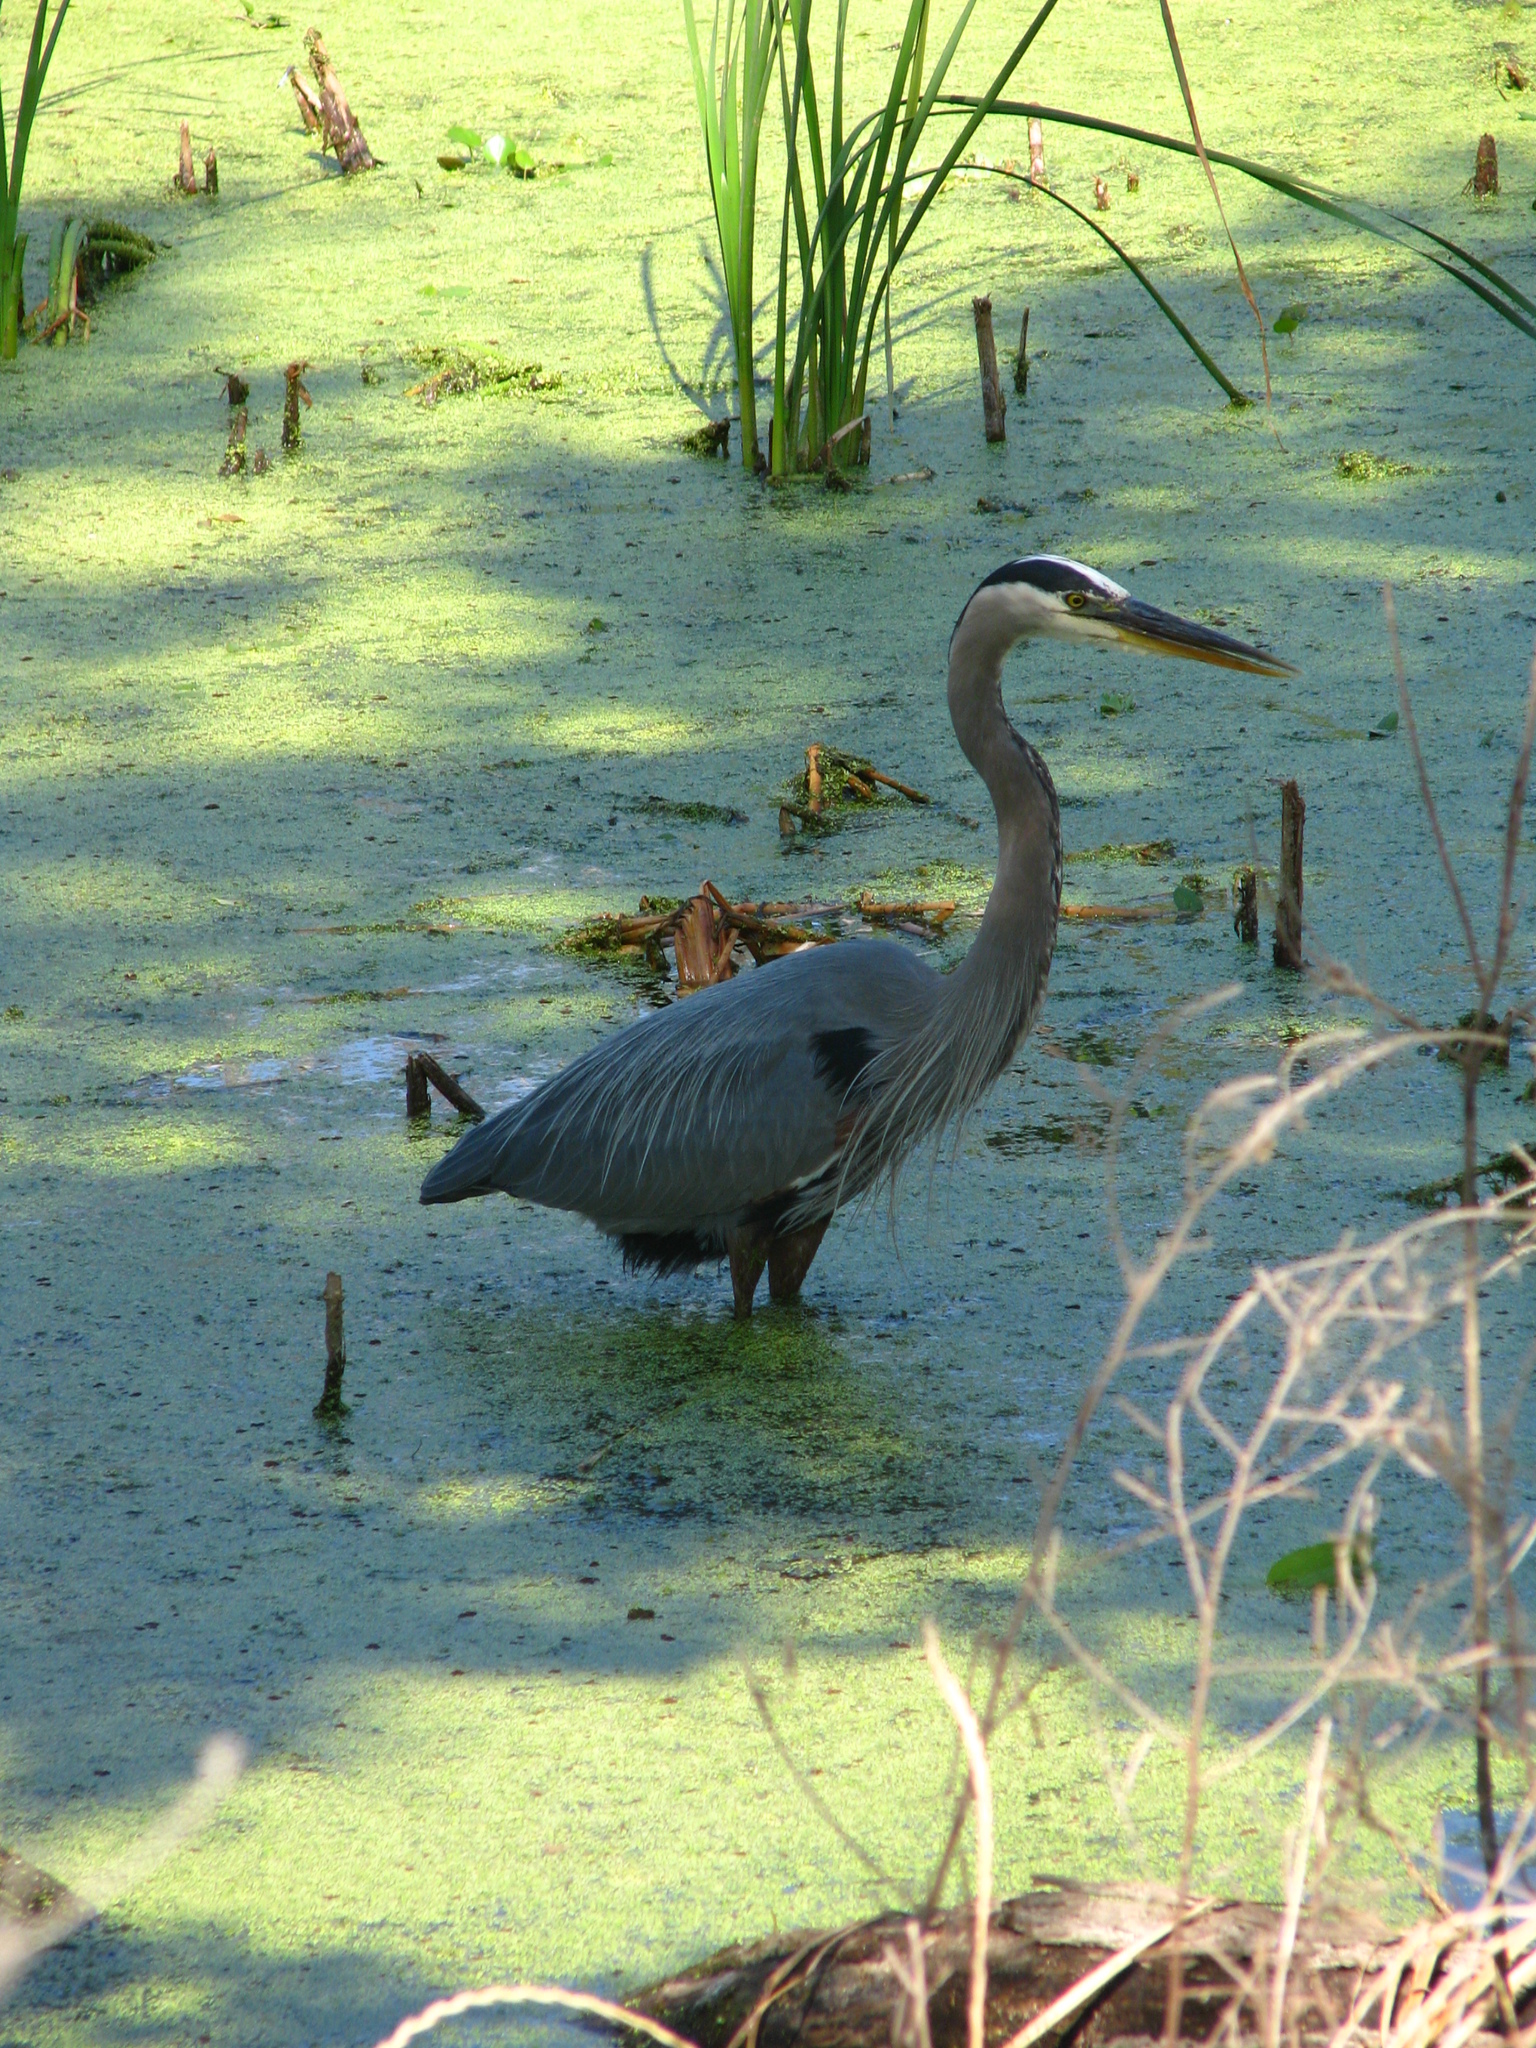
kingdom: Animalia
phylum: Chordata
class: Aves
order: Pelecaniformes
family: Ardeidae
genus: Ardea
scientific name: Ardea herodias
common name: Great blue heron
